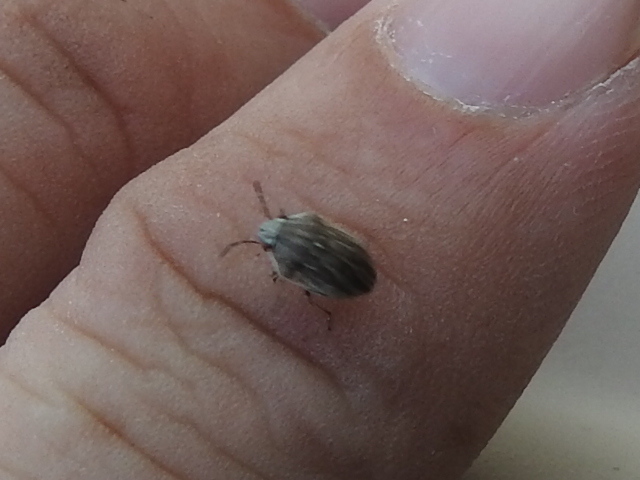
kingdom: Animalia
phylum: Arthropoda
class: Insecta
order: Hemiptera
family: Scutelleridae
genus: Homaemus
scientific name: Homaemus parvulus
